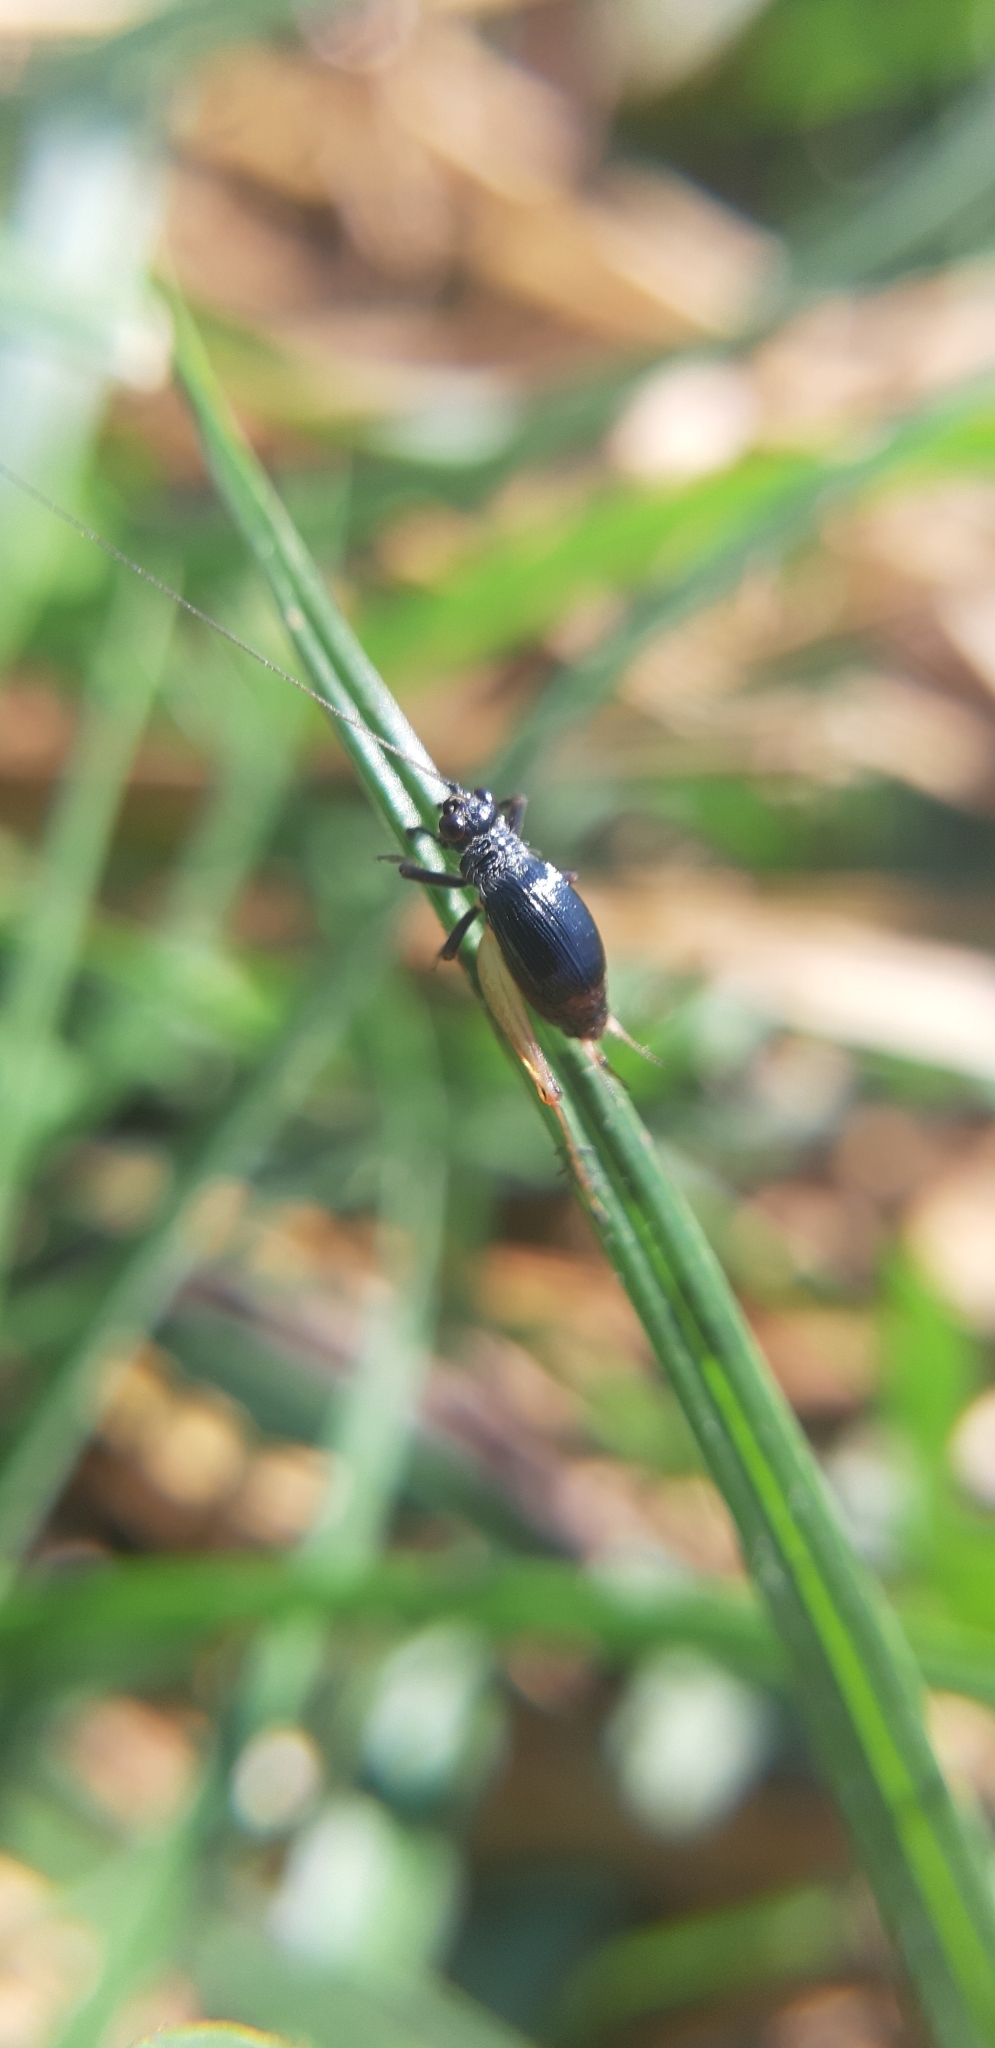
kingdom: Animalia
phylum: Arthropoda
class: Insecta
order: Orthoptera
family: Trigonidiidae
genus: Trigonidium
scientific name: Trigonidium cicindeloides
